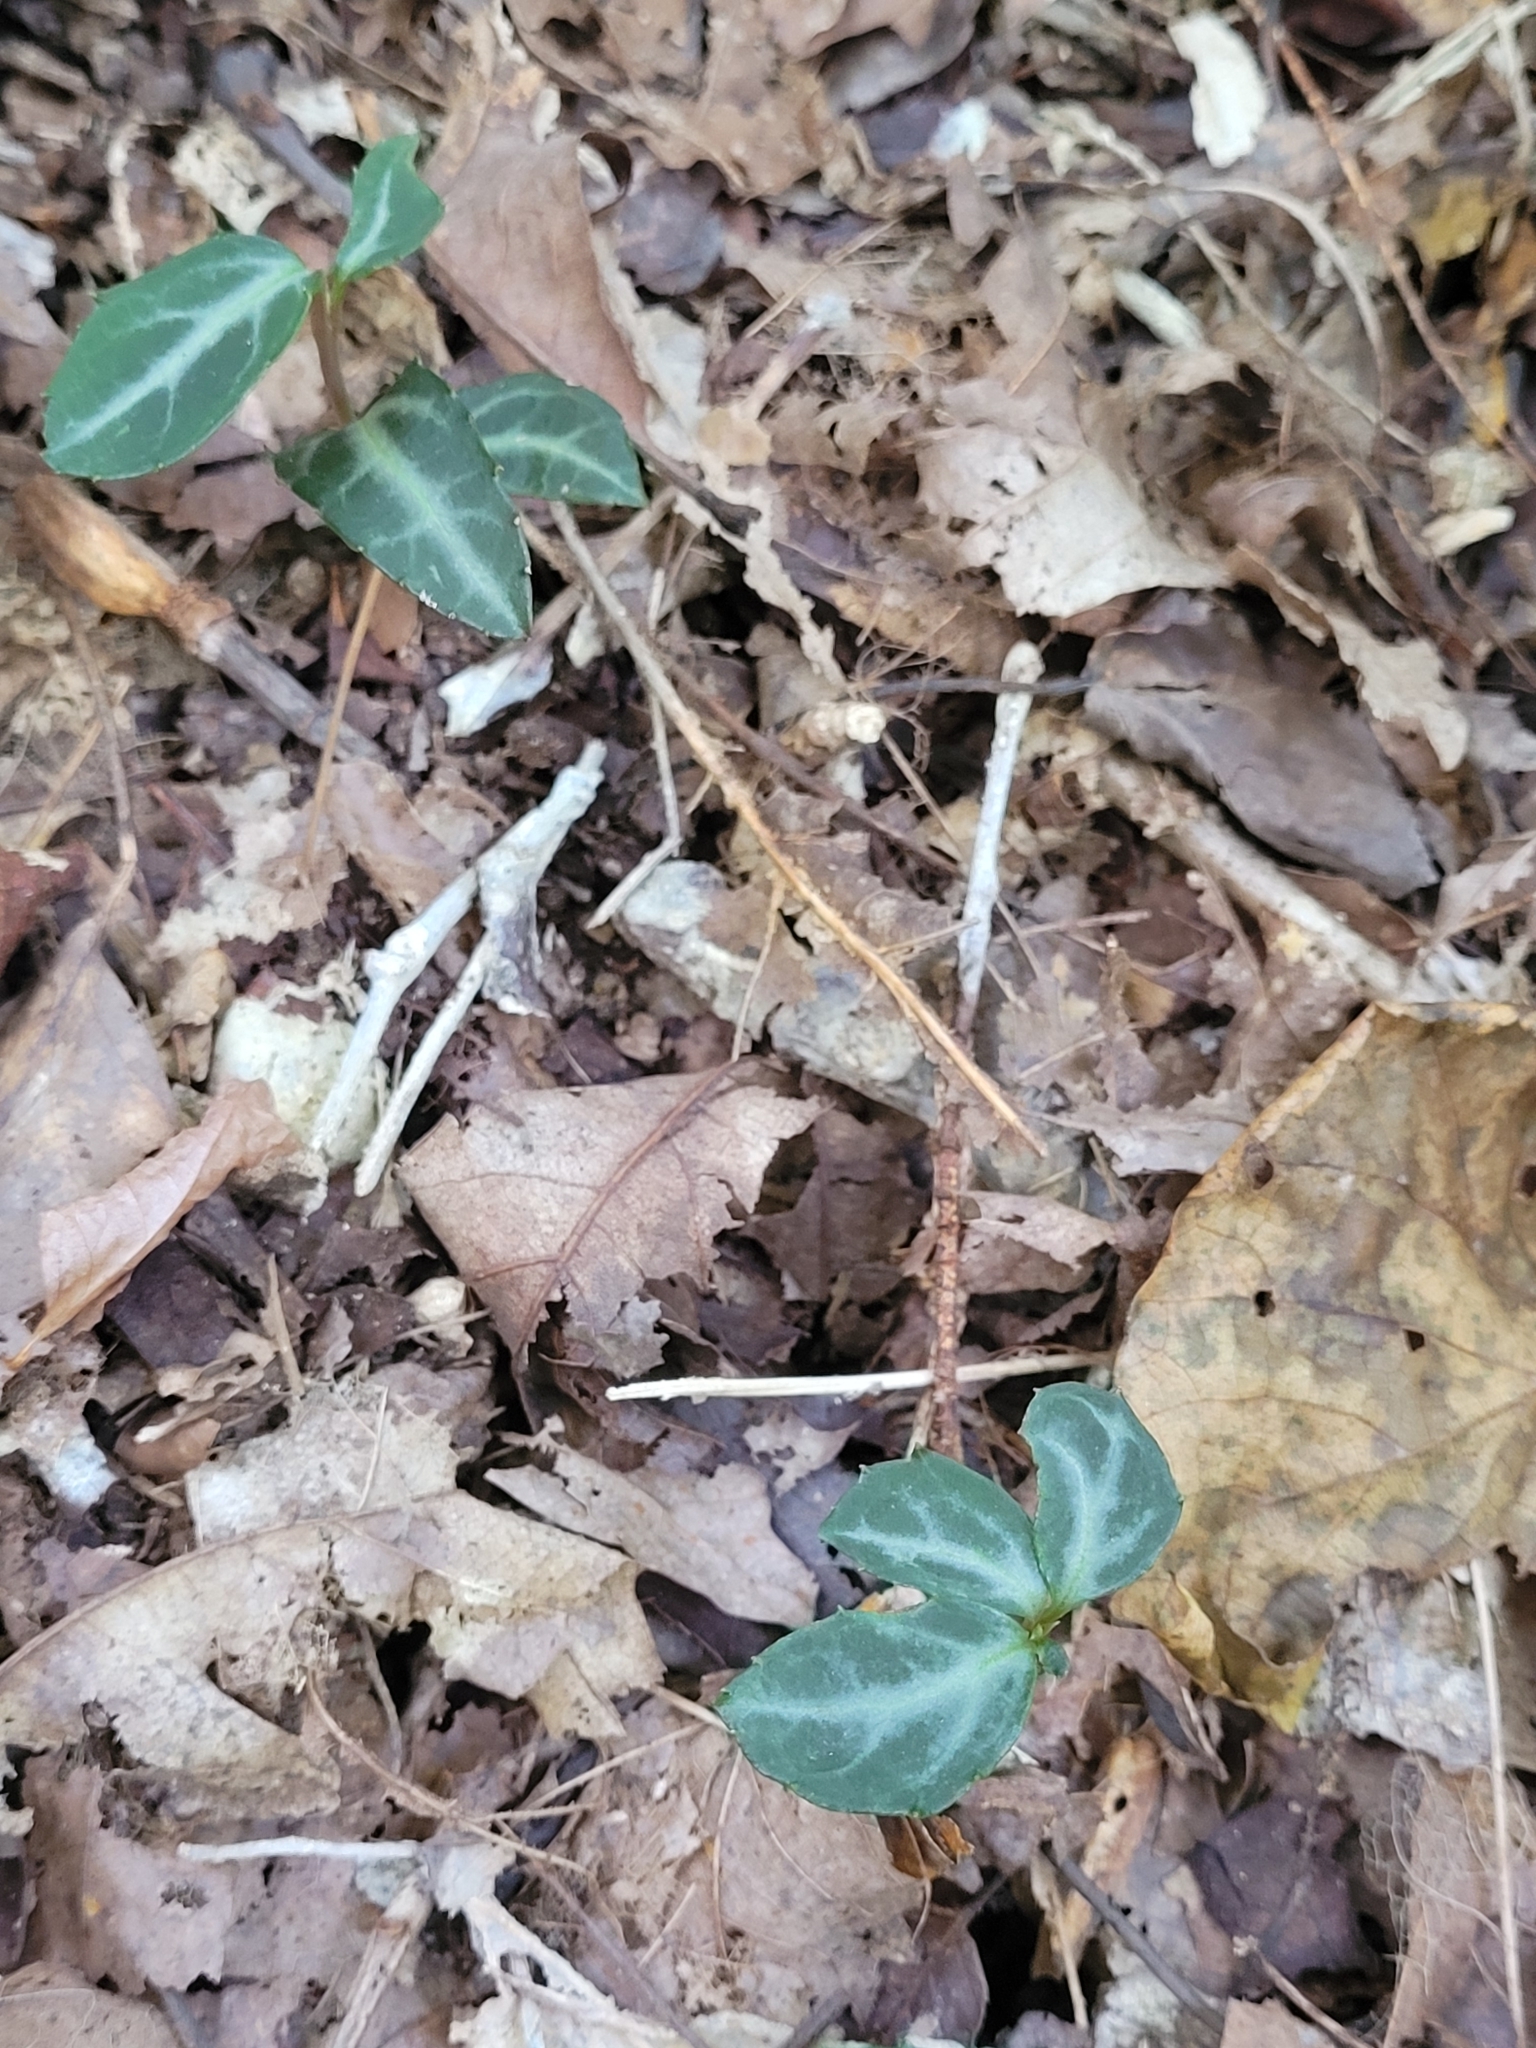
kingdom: Plantae
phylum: Tracheophyta
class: Magnoliopsida
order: Ericales
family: Ericaceae
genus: Chimaphila
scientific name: Chimaphila maculata
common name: Spotted pipsissewa
